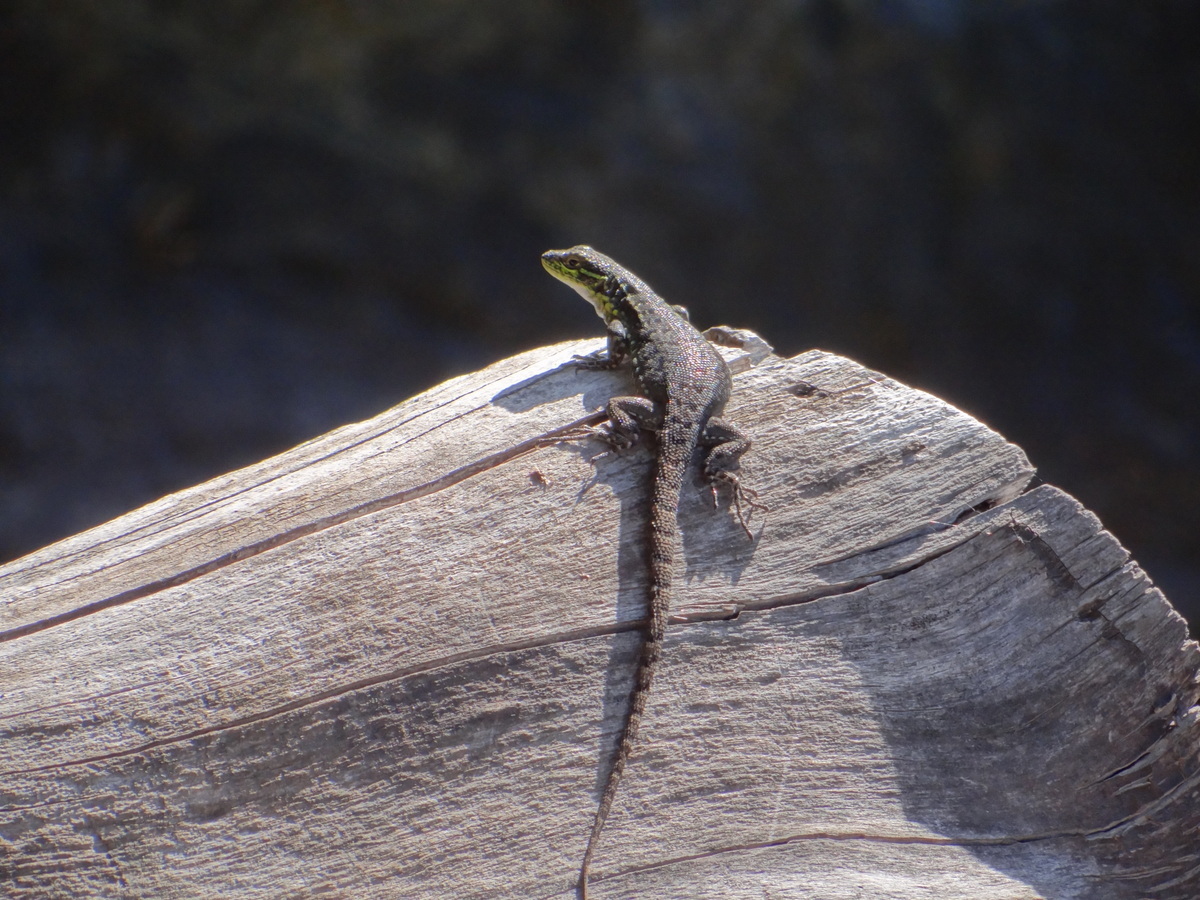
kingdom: Animalia
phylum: Chordata
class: Squamata
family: Liolaemidae
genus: Liolaemus
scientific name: Liolaemus tenuis
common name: Thin tree iguana
